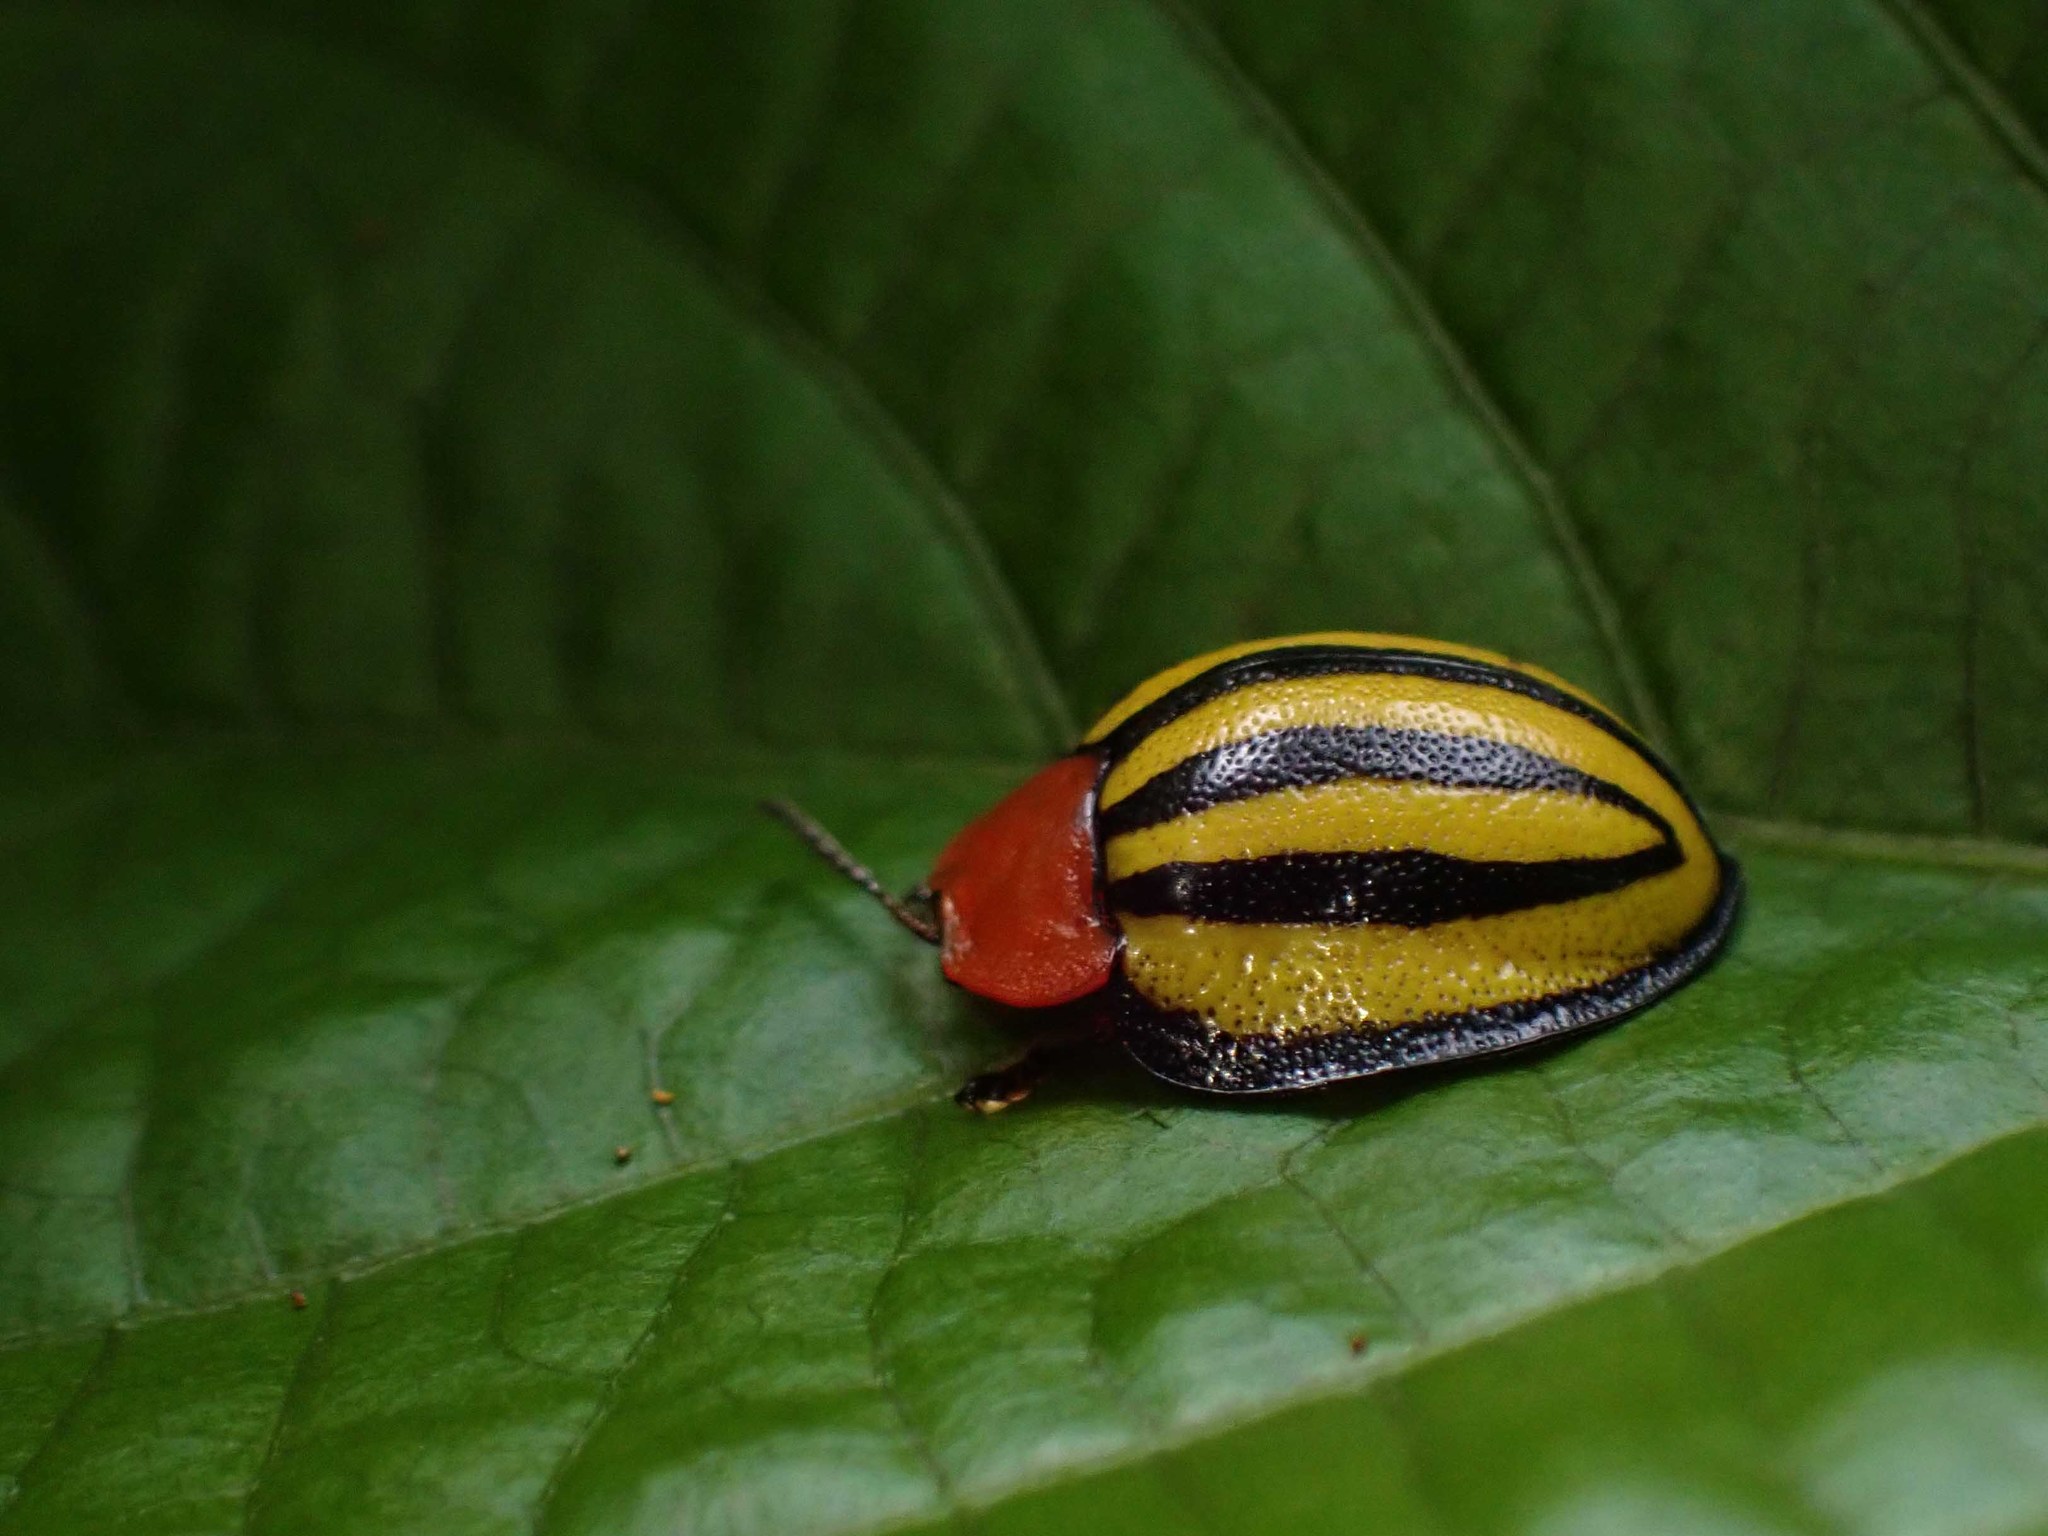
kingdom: Animalia
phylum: Arthropoda
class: Insecta
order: Coleoptera
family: Chrysomelidae
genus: Terpsis
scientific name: Terpsis quadrivittata
